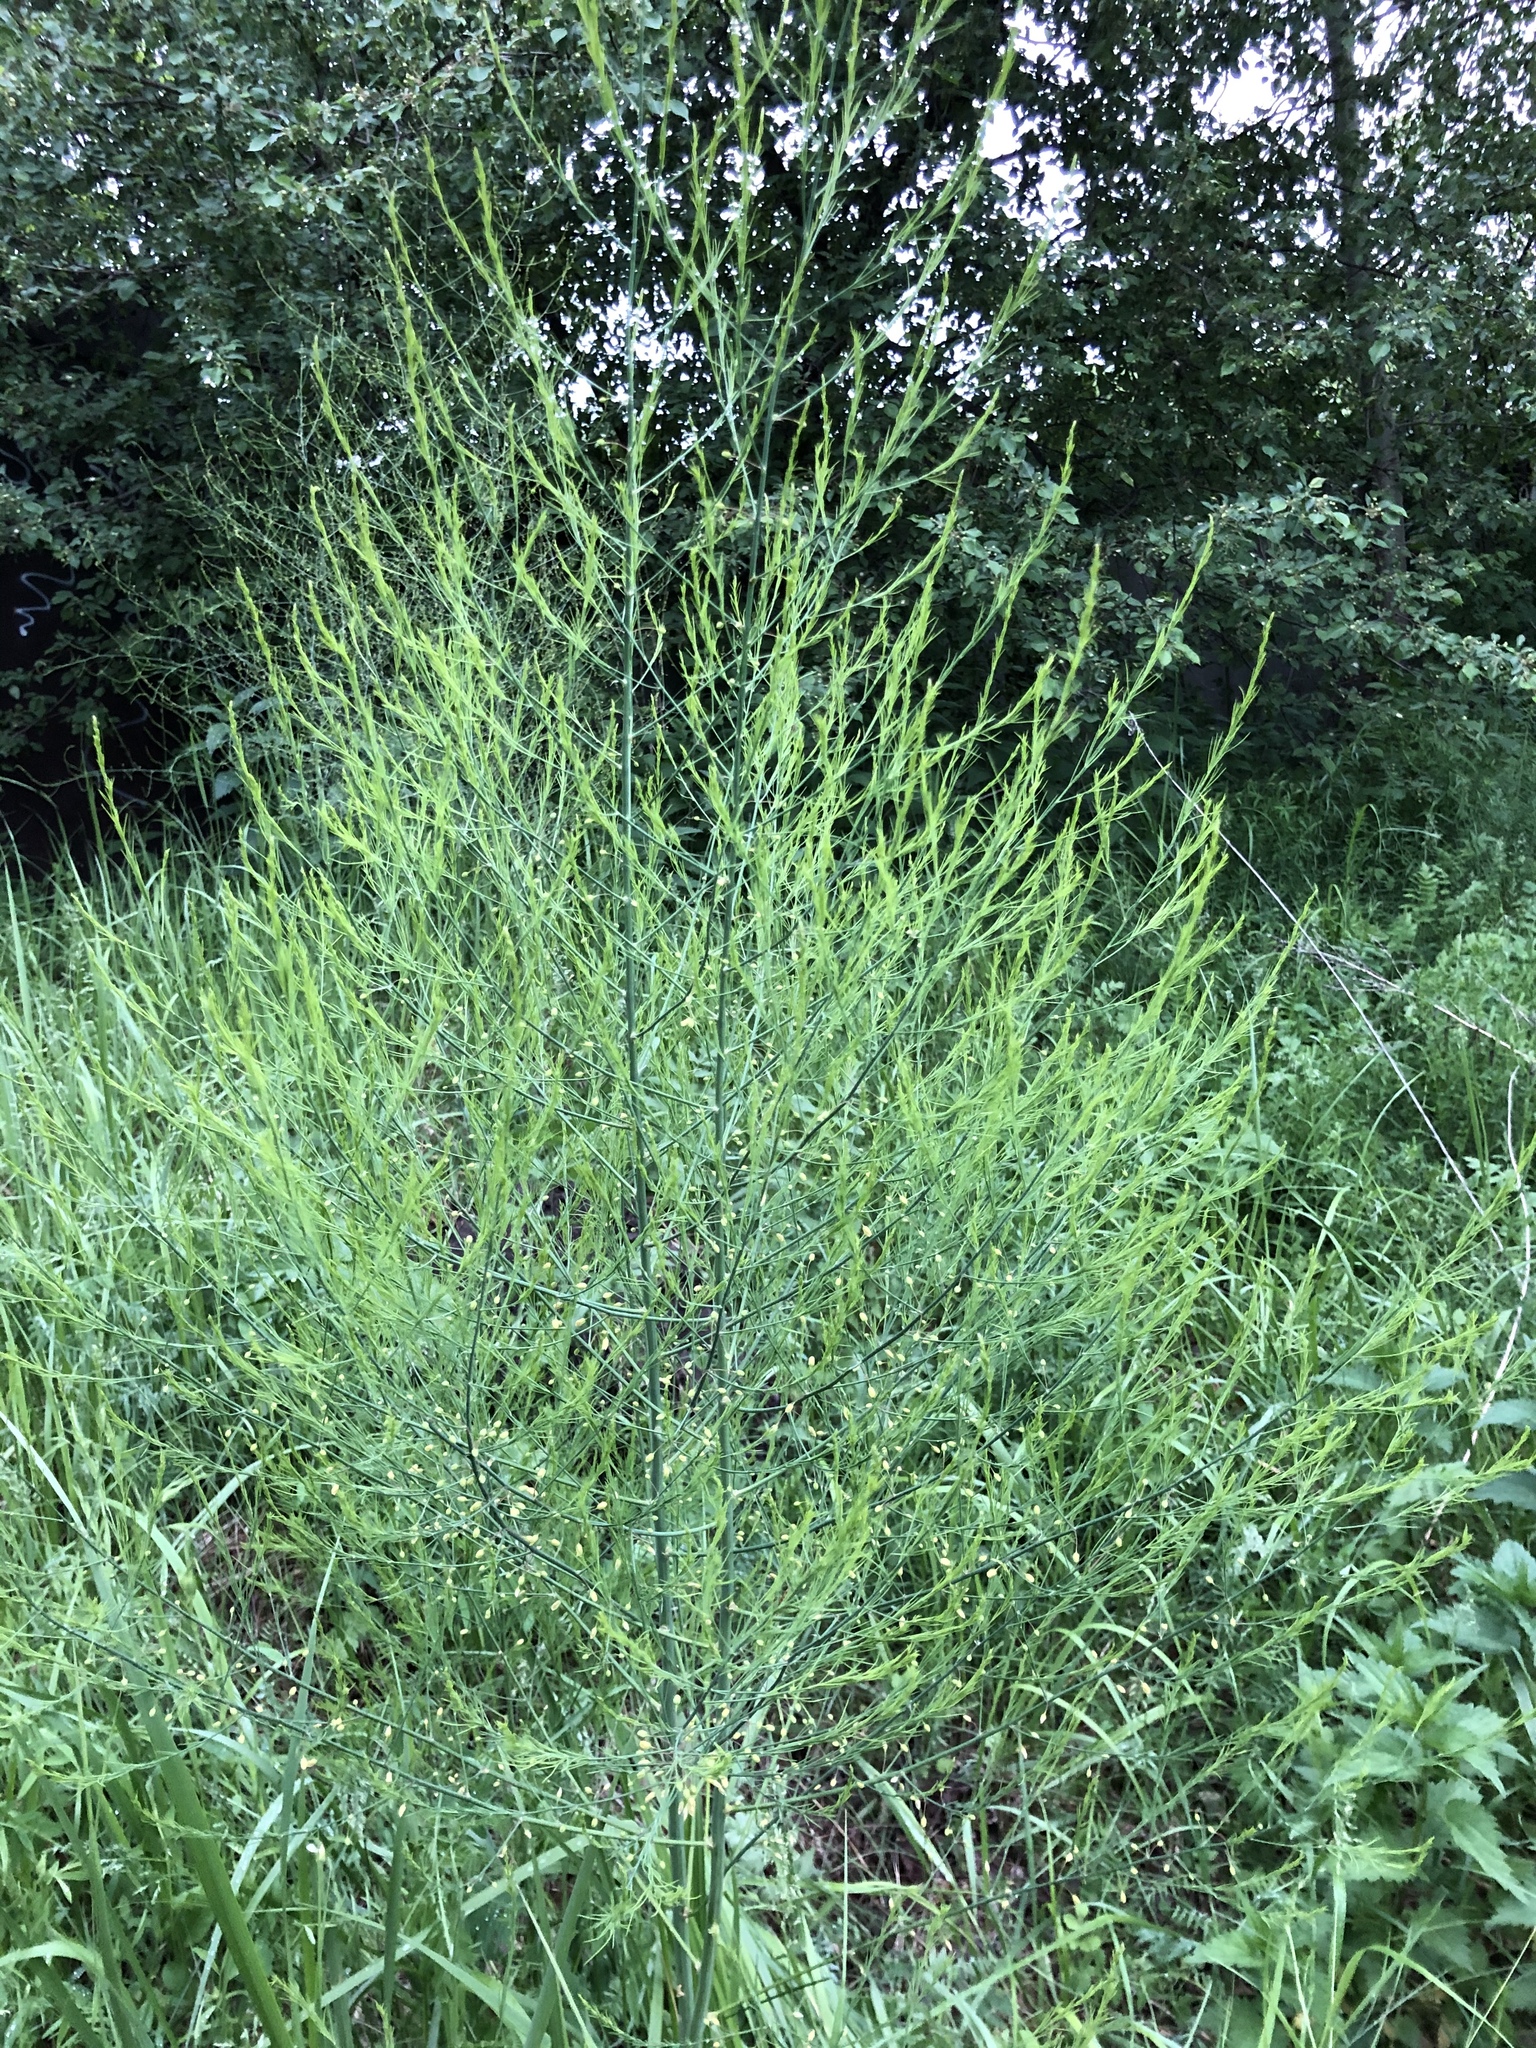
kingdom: Plantae
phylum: Tracheophyta
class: Liliopsida
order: Asparagales
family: Asparagaceae
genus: Asparagus
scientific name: Asparagus officinalis
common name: Garden asparagus
